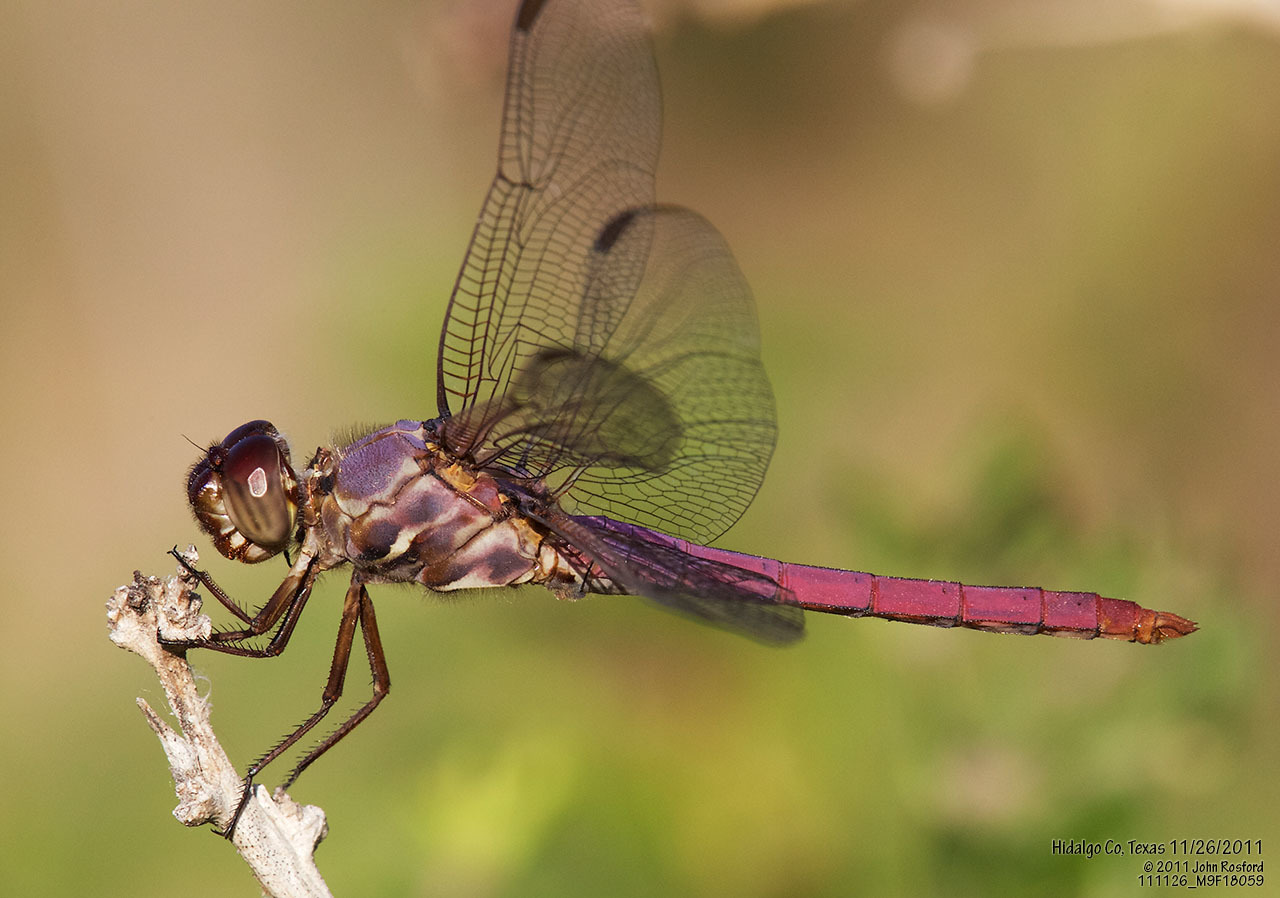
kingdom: Animalia
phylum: Arthropoda
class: Insecta
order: Odonata
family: Libellulidae
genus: Orthemis
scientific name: Orthemis ferruginea
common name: Roseate skimmer
